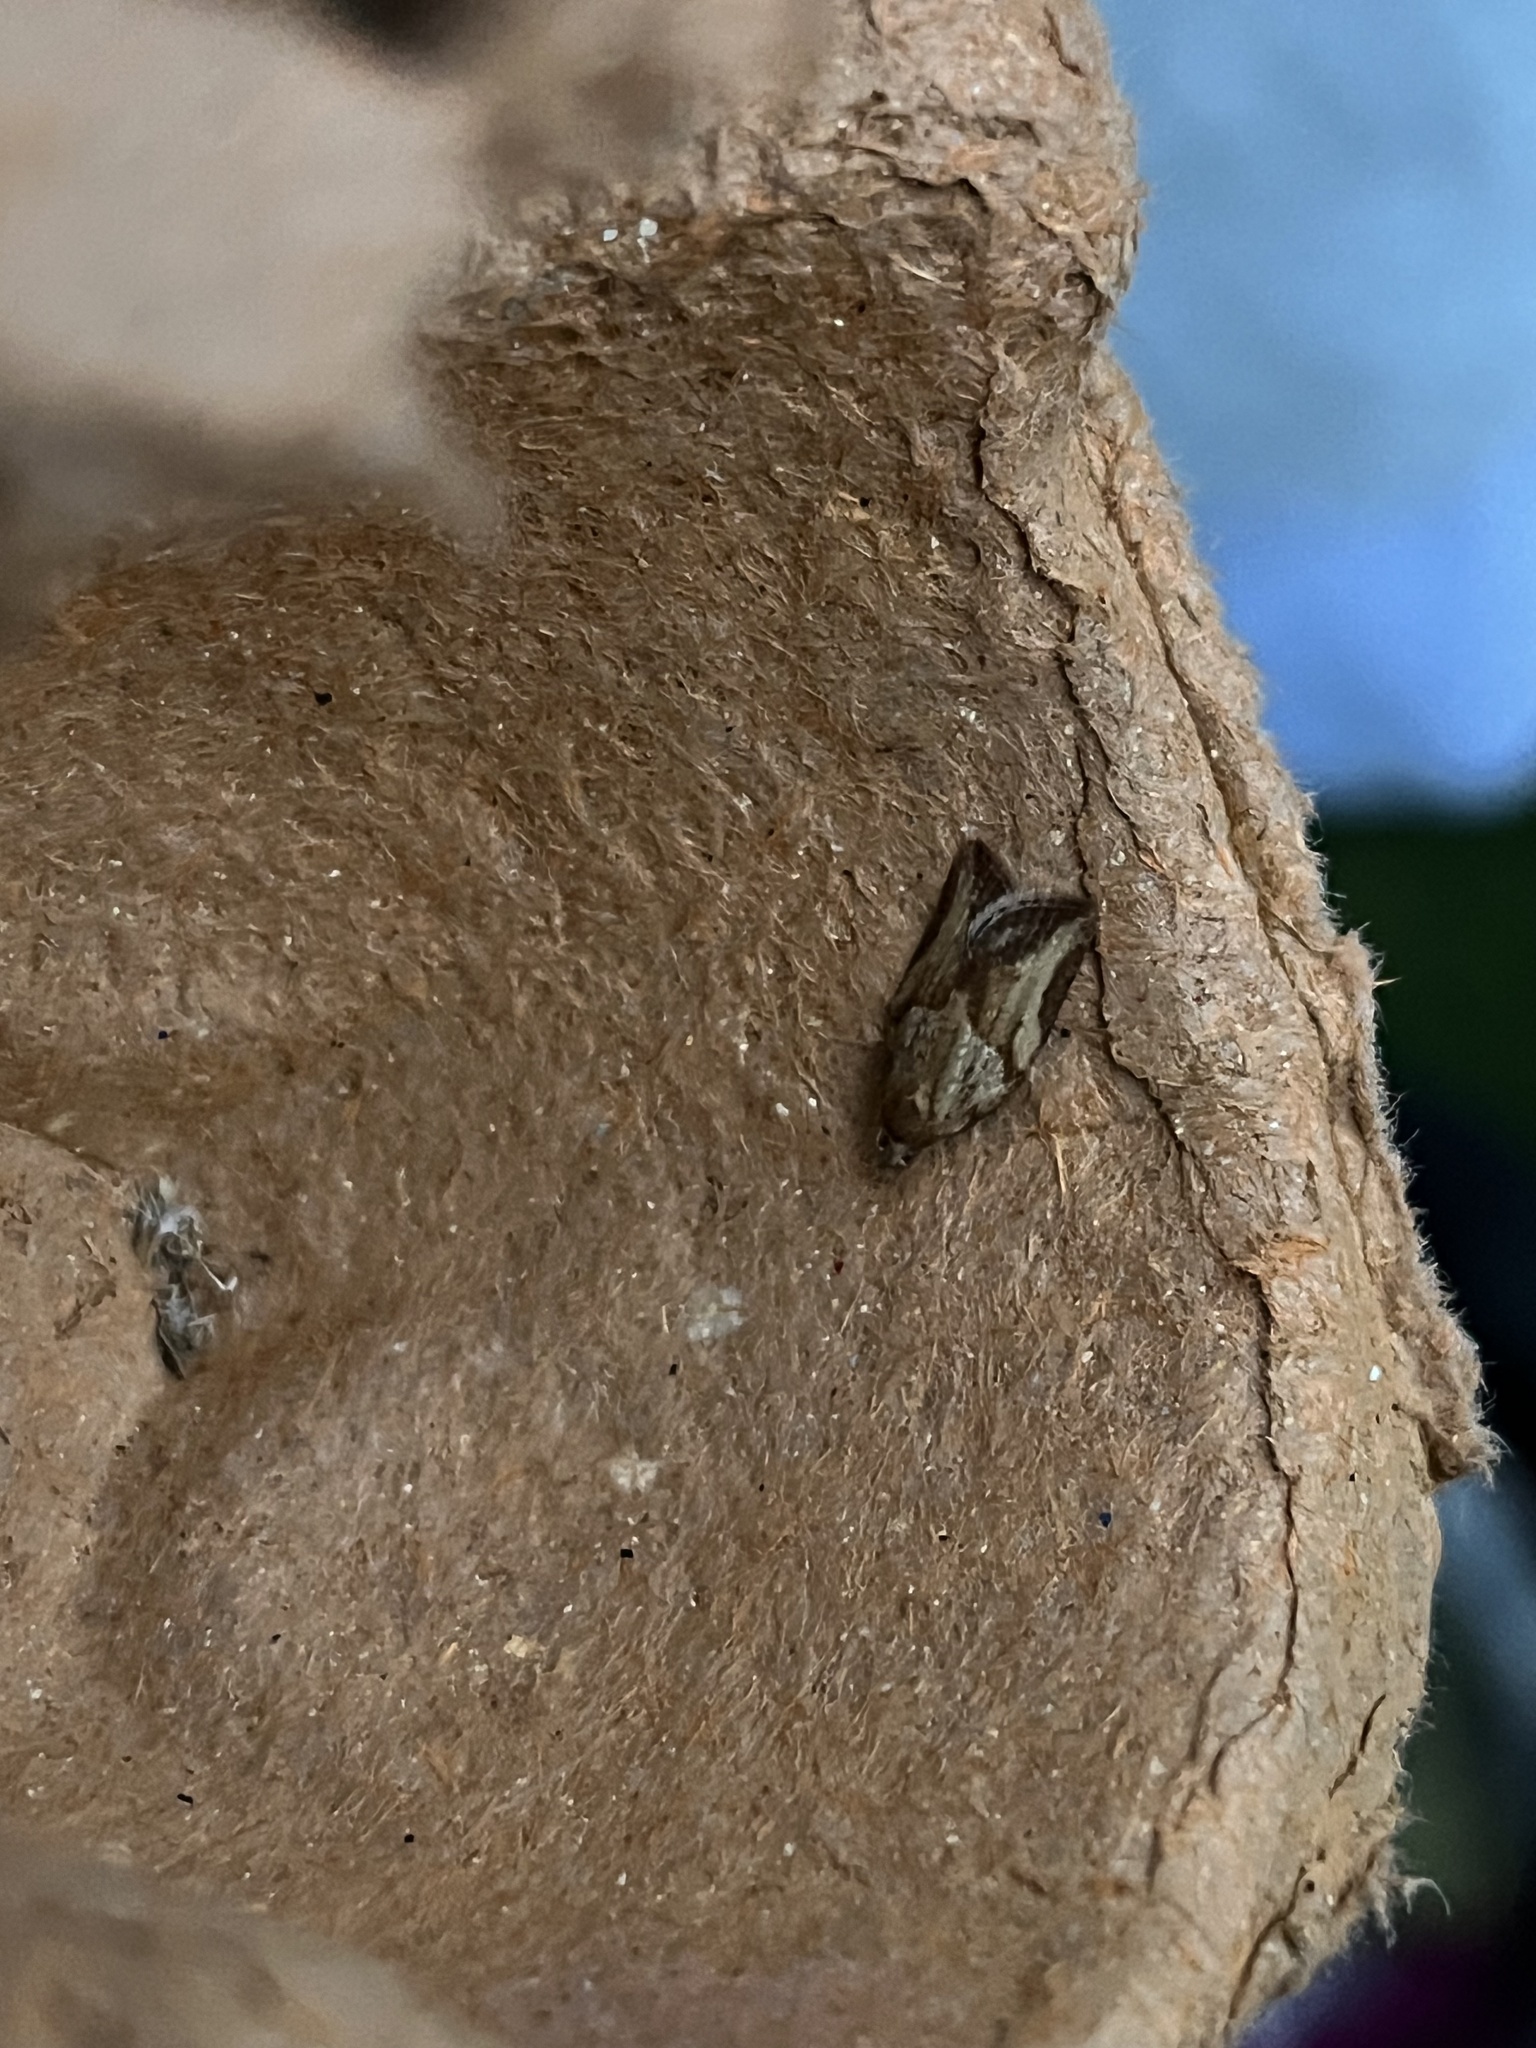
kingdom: Animalia
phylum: Arthropoda
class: Insecta
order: Lepidoptera
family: Tortricidae
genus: Epiphyas
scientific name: Epiphyas postvittana
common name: Light brown apple moth
